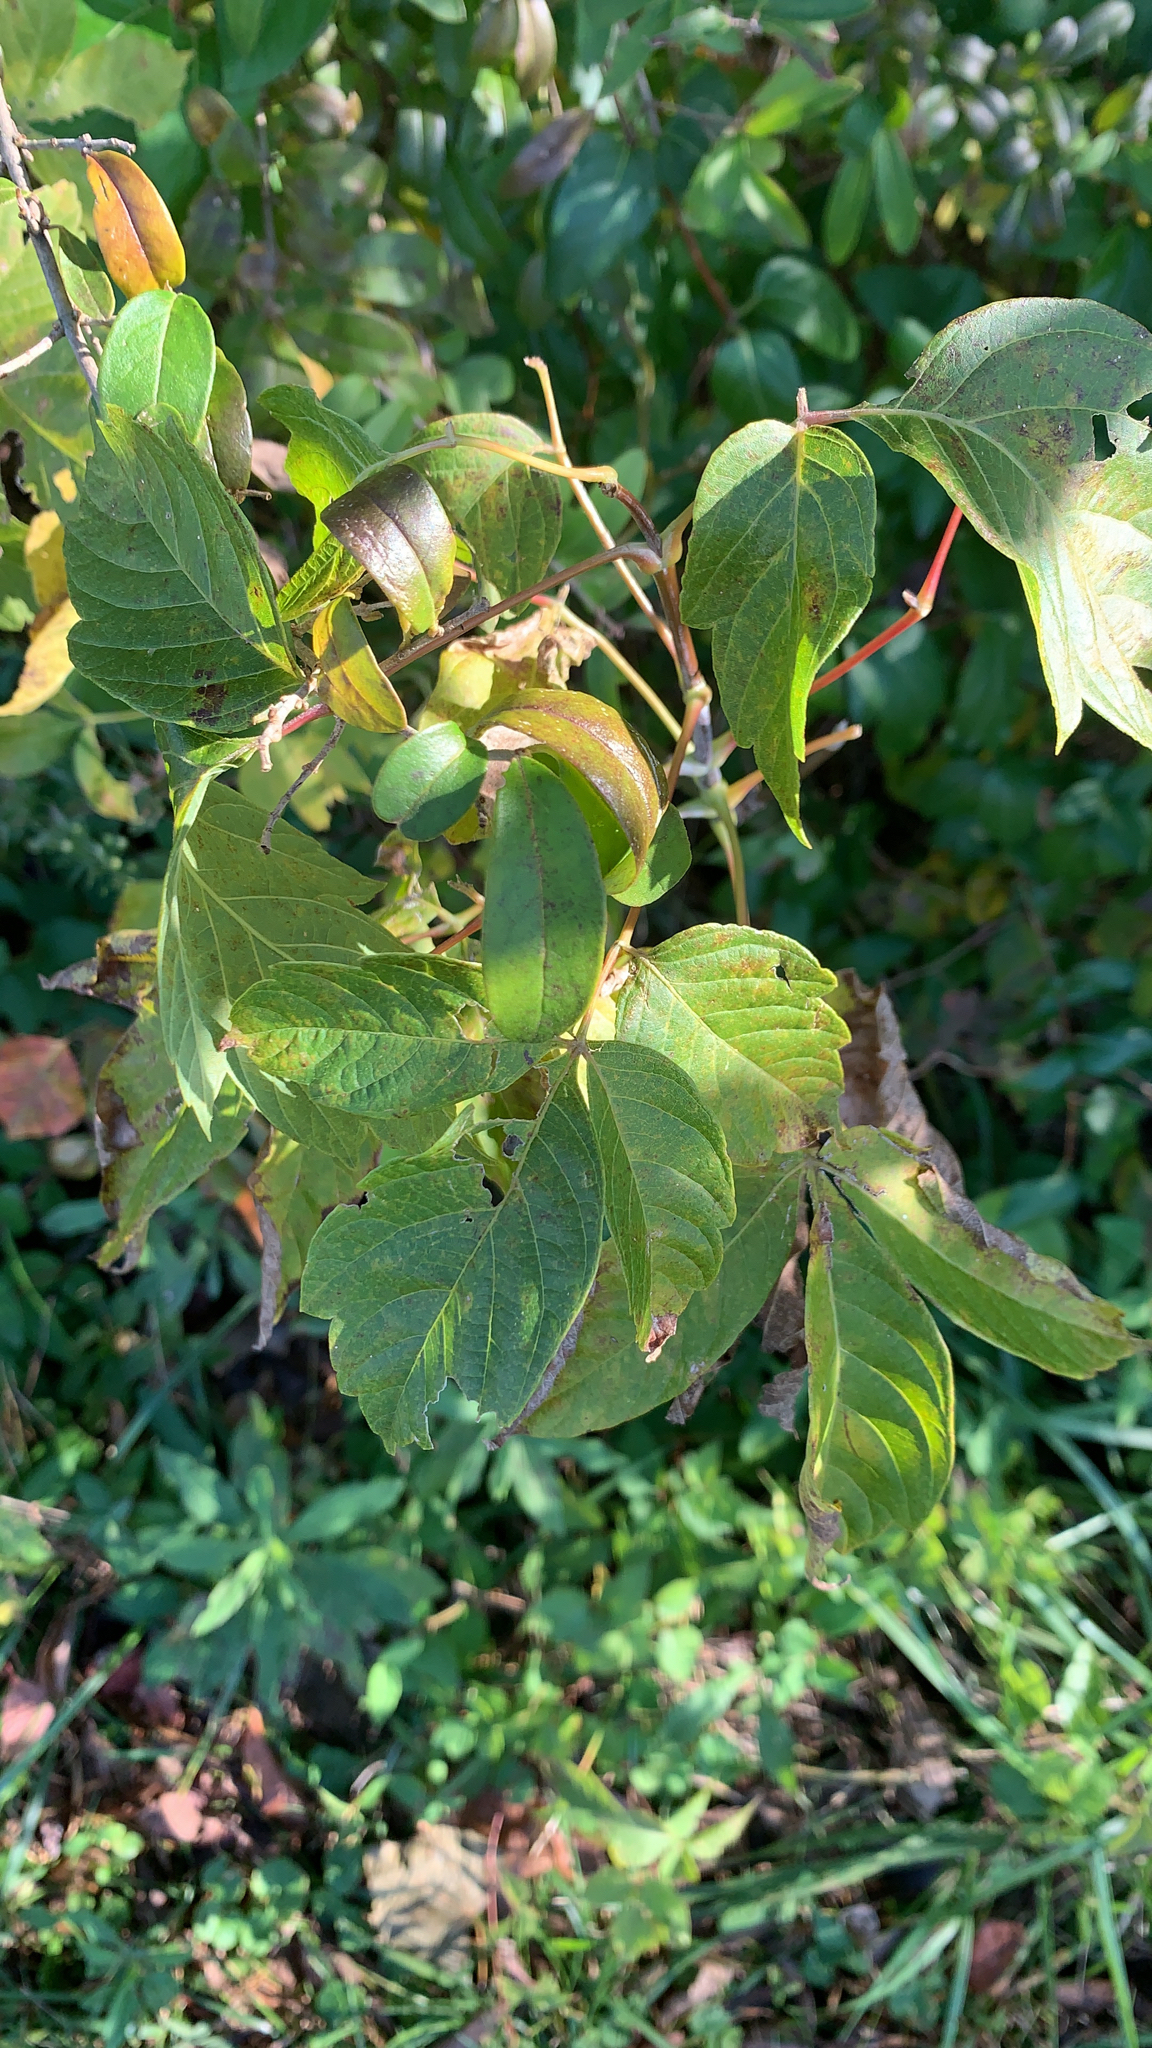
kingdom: Plantae
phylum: Tracheophyta
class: Magnoliopsida
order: Sapindales
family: Sapindaceae
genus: Acer
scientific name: Acer negundo
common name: Ashleaf maple
